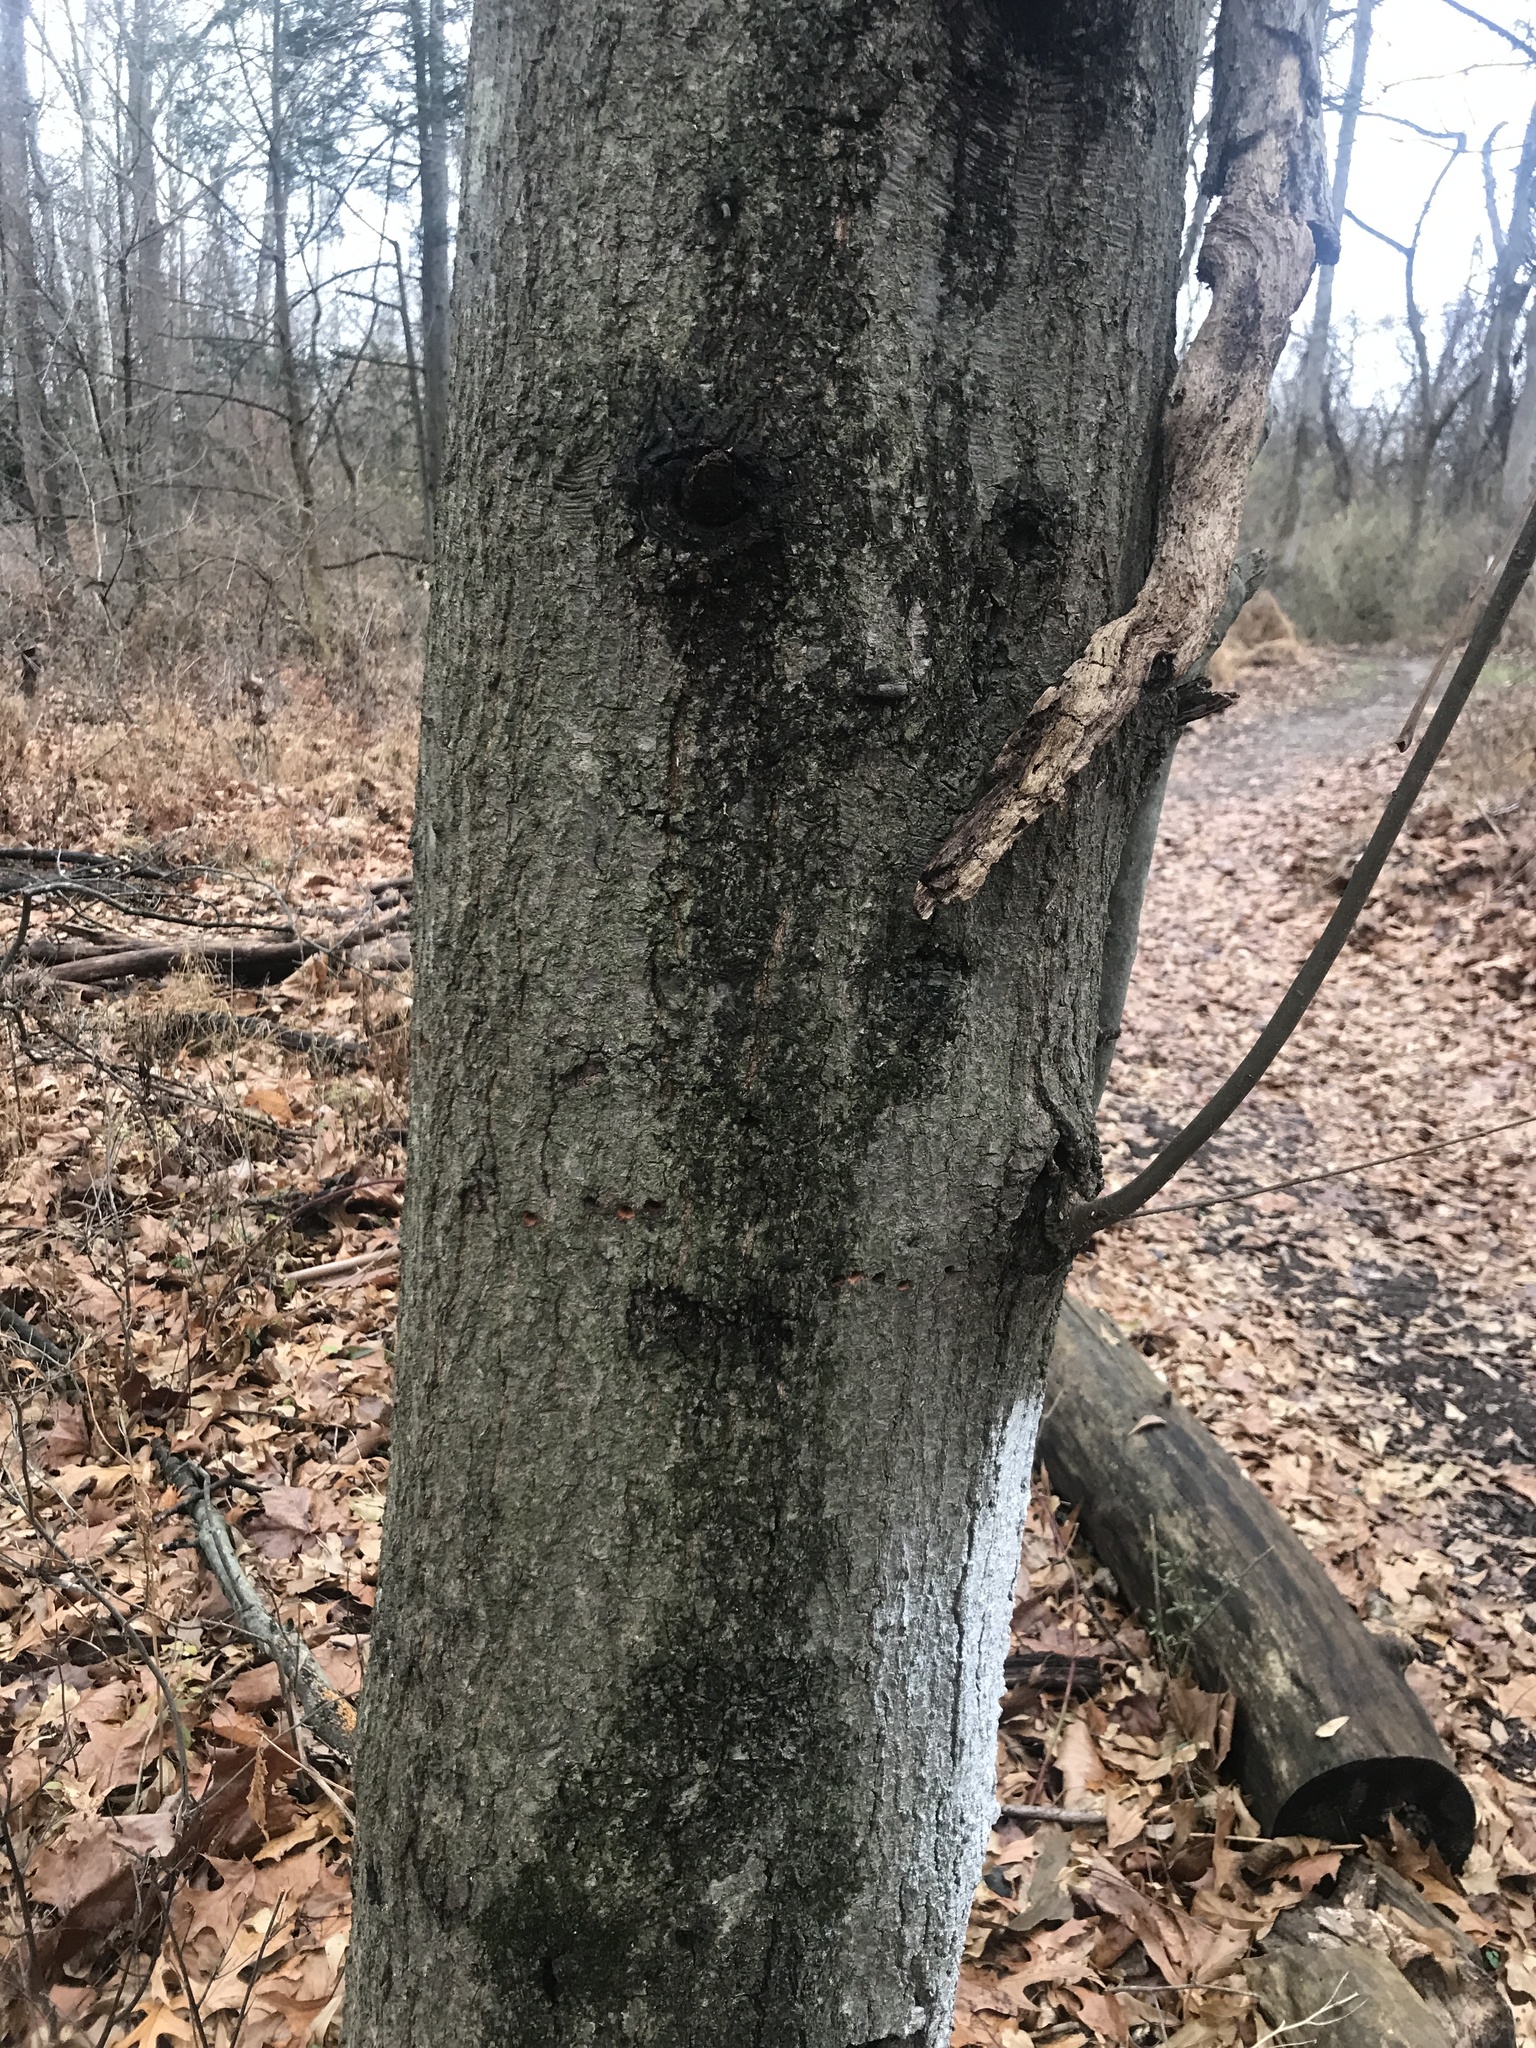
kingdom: Plantae
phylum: Tracheophyta
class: Magnoliopsida
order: Fagales
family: Fagaceae
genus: Quercus
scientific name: Quercus nigra
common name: Water oak
